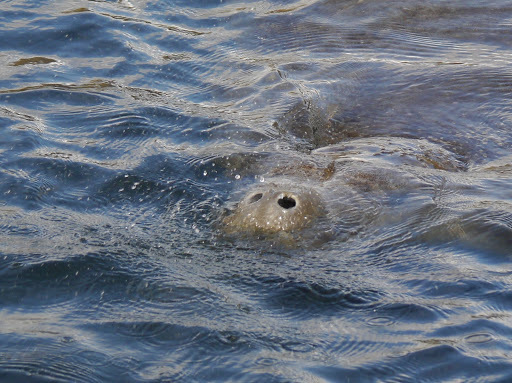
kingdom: Animalia
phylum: Chordata
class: Mammalia
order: Sirenia
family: Trichechidae
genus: Trichechus
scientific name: Trichechus manatus
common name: West indian manatee
